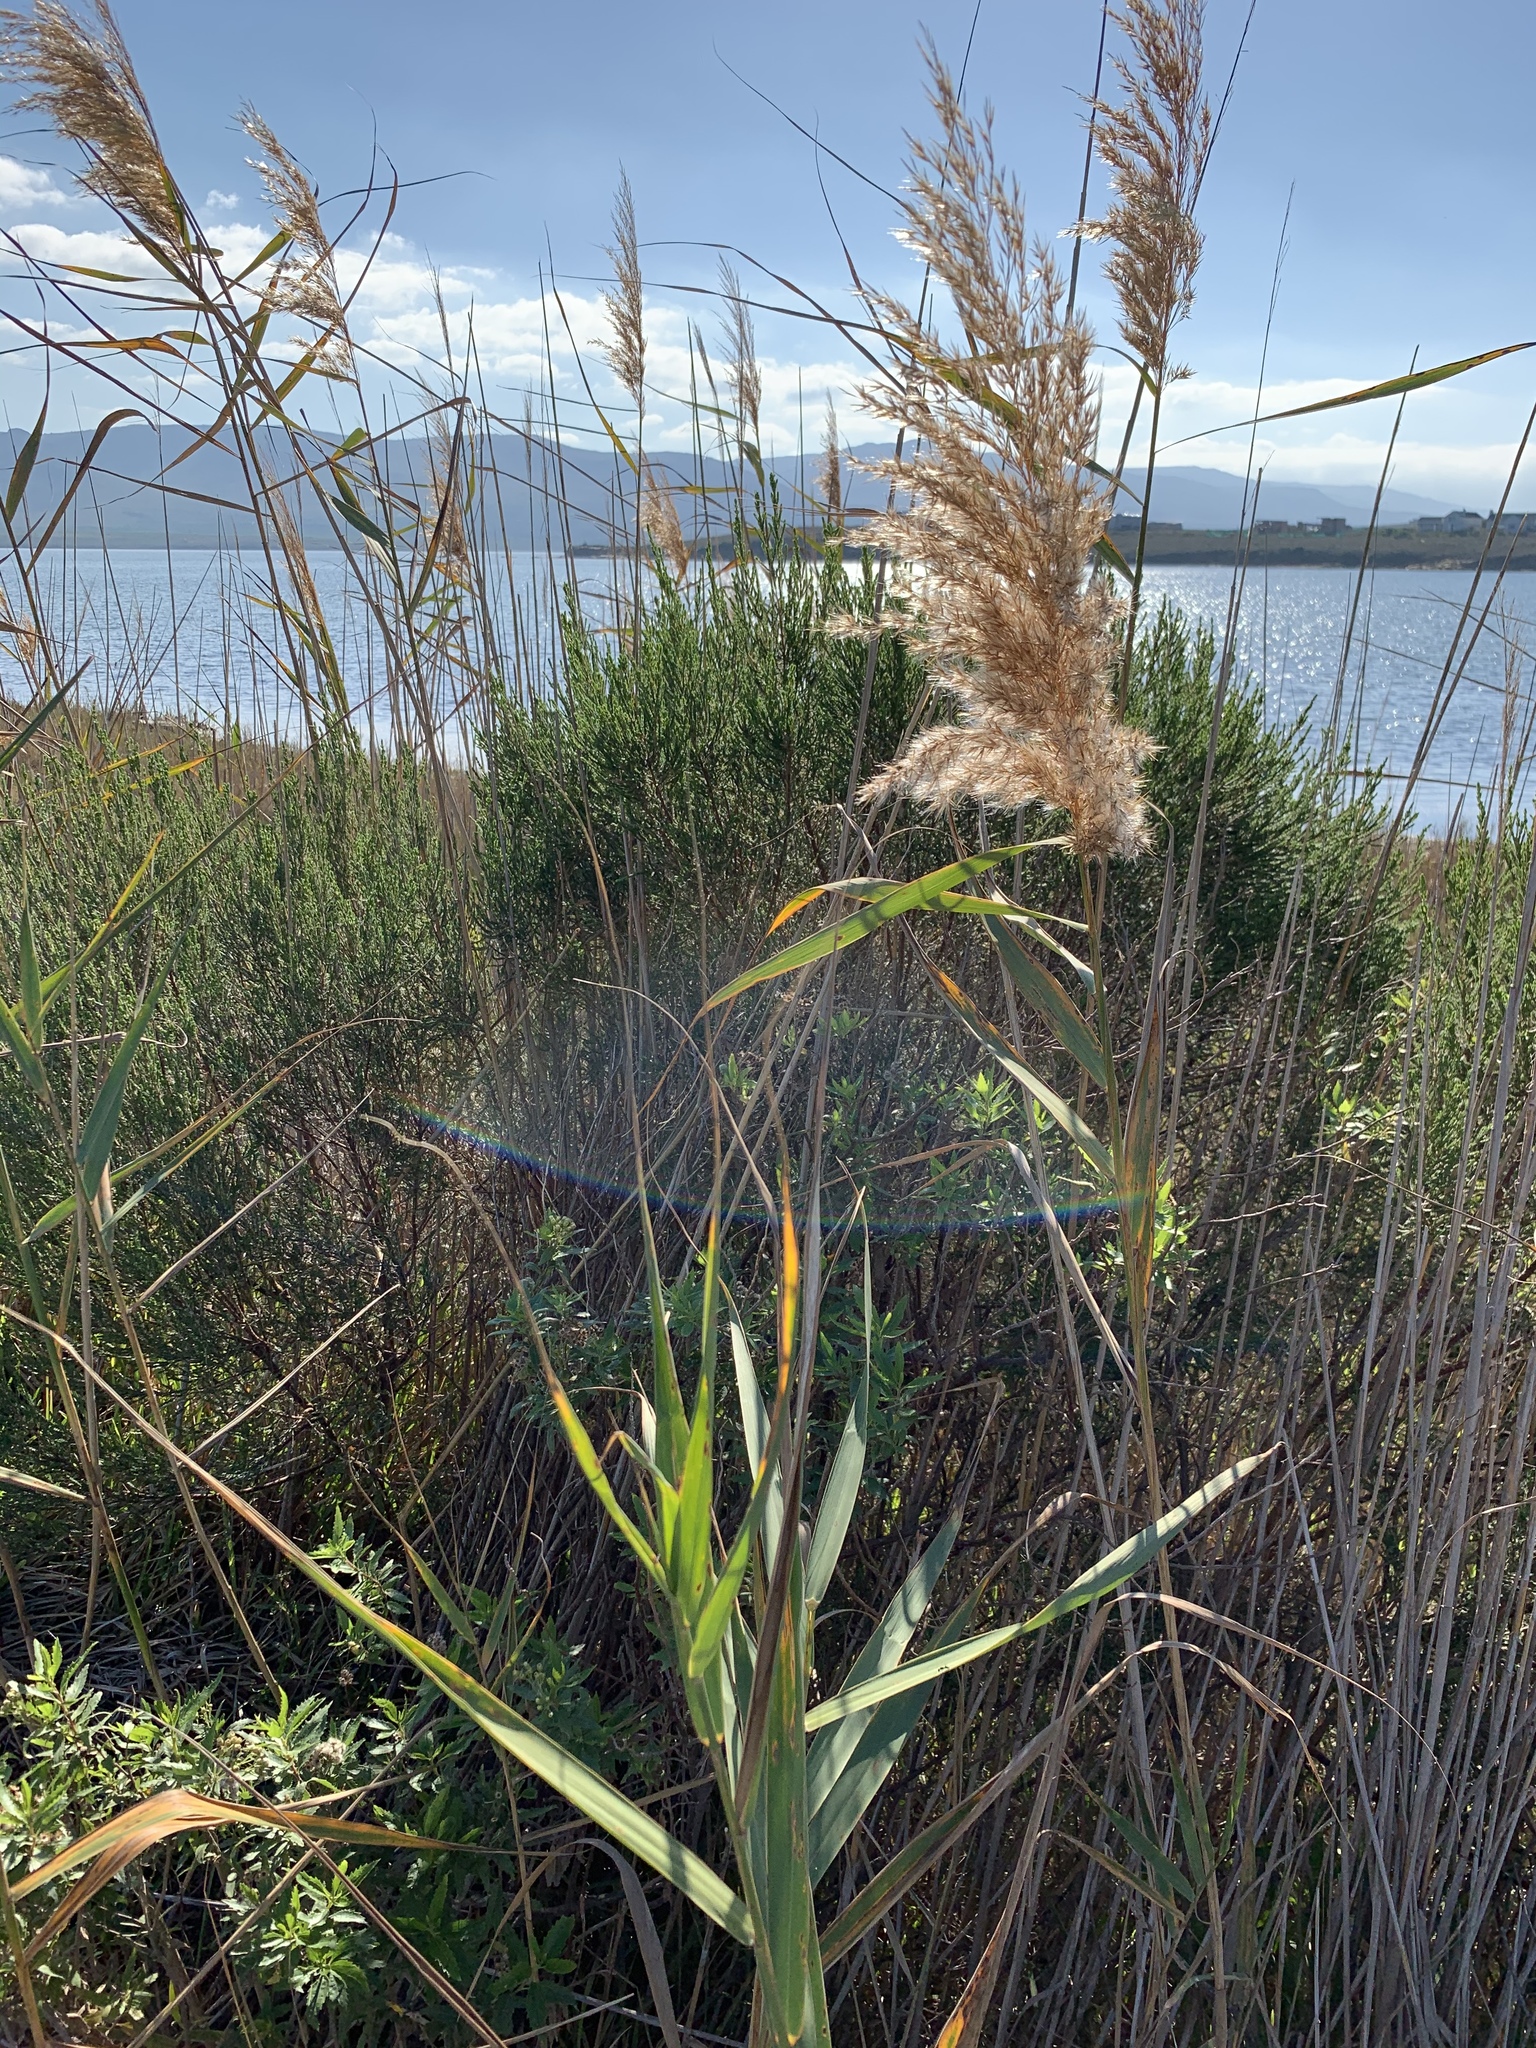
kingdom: Plantae
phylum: Tracheophyta
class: Liliopsida
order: Poales
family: Poaceae
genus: Phragmites
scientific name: Phragmites australis
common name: Common reed
